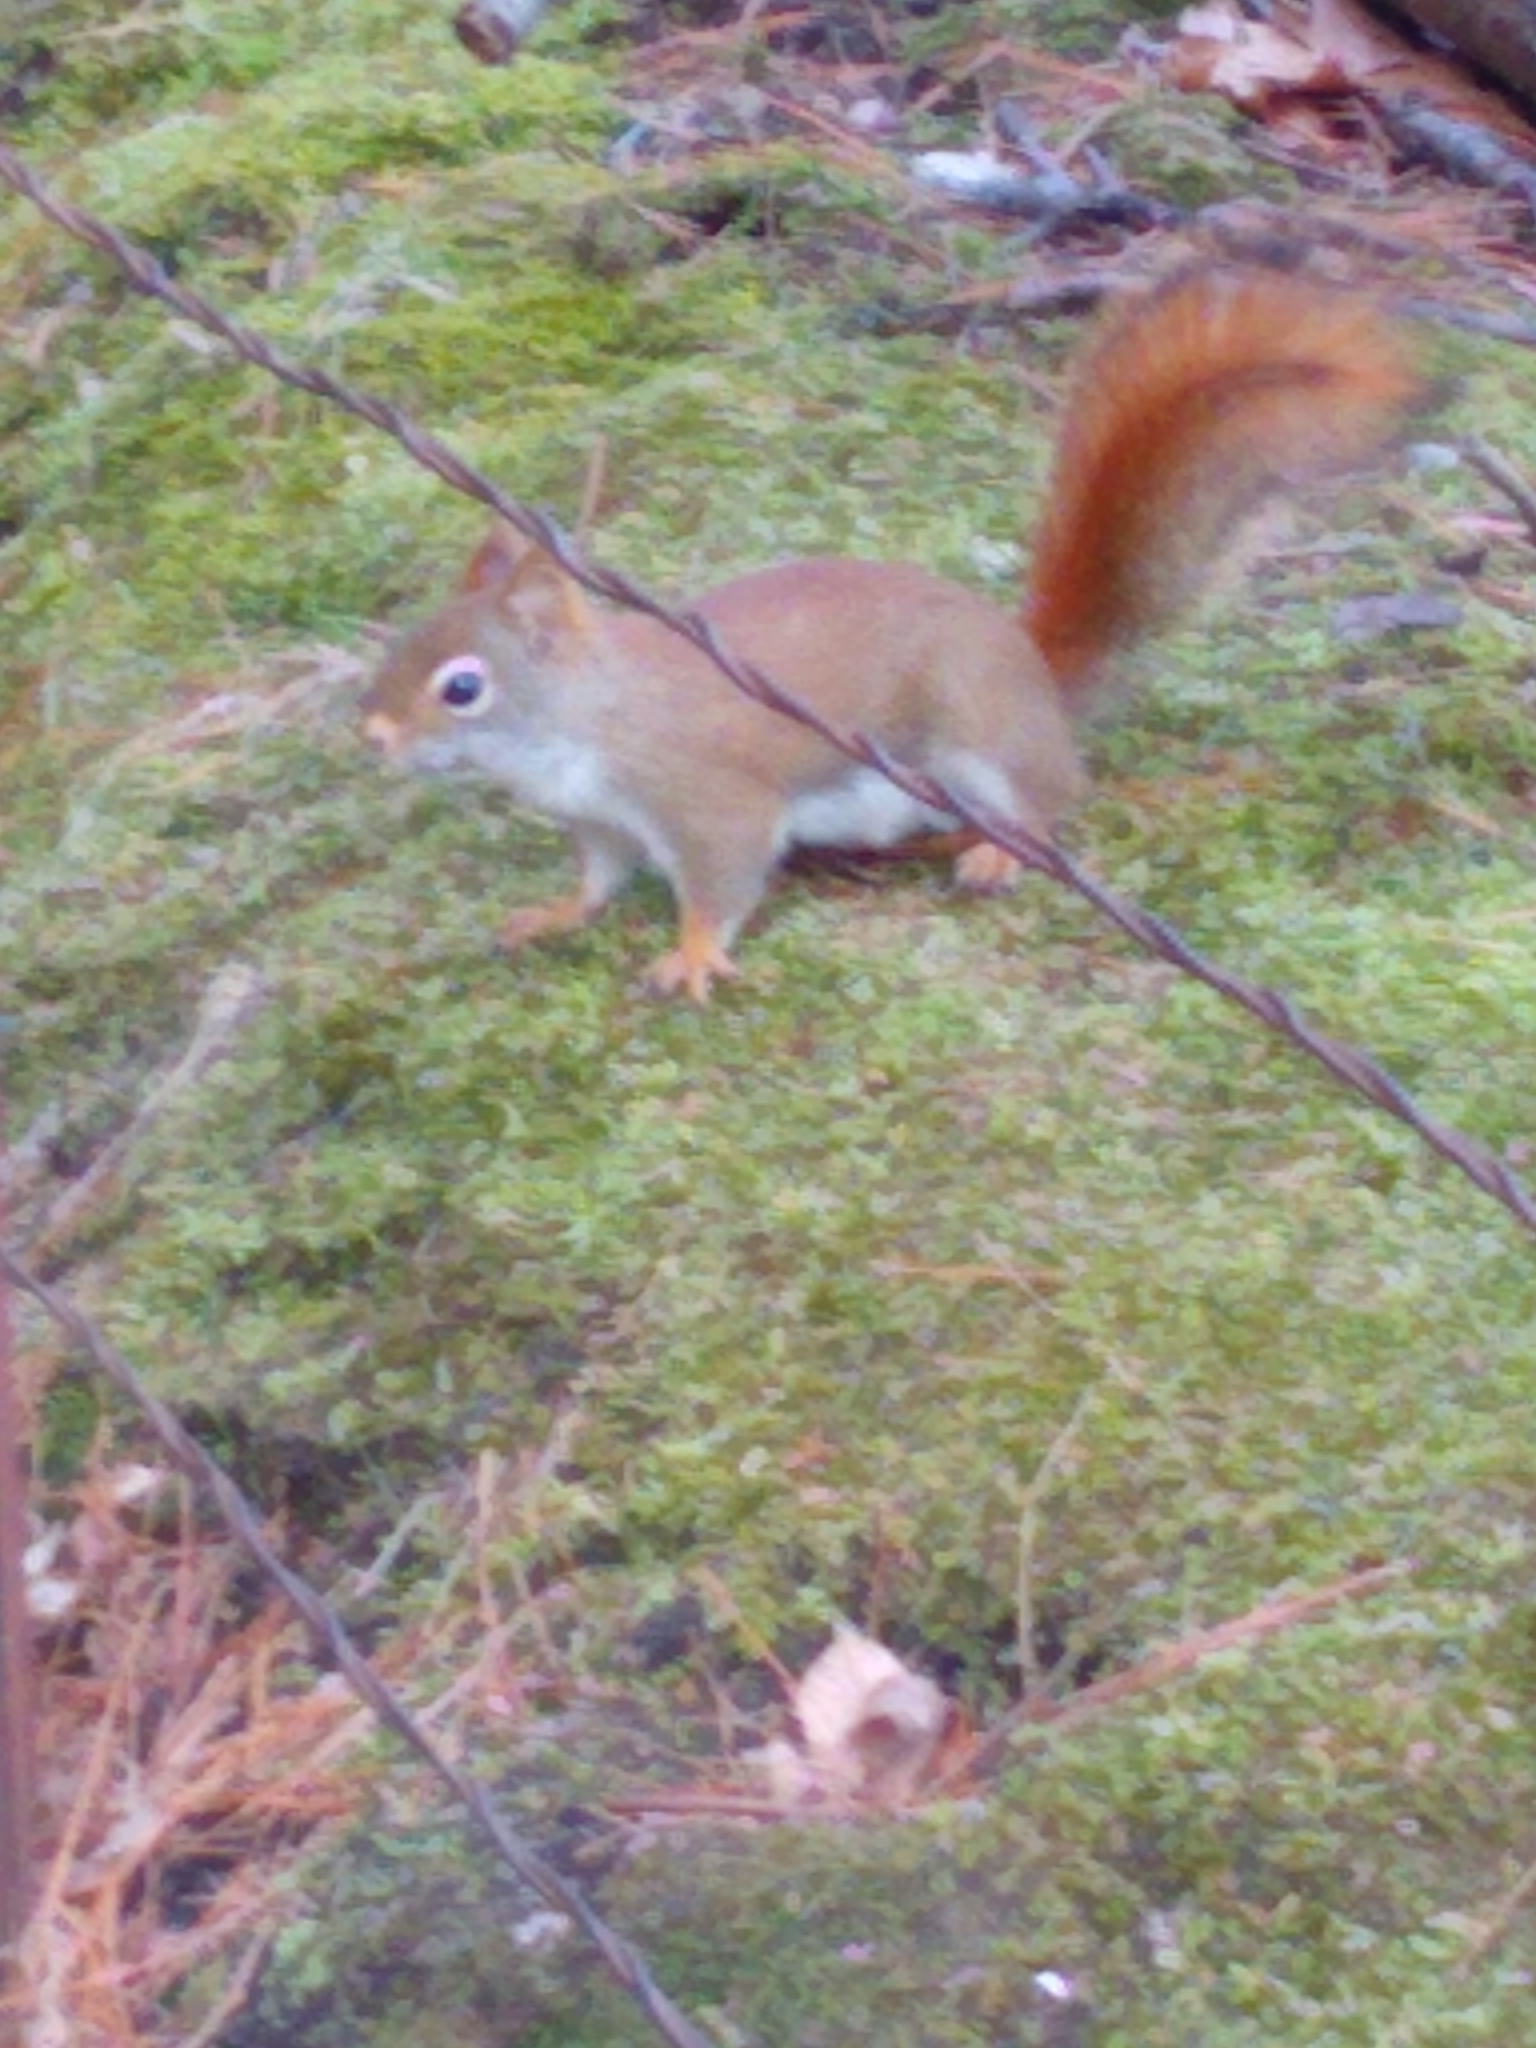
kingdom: Animalia
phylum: Chordata
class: Mammalia
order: Rodentia
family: Sciuridae
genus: Tamiasciurus
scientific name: Tamiasciurus hudsonicus
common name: Red squirrel
